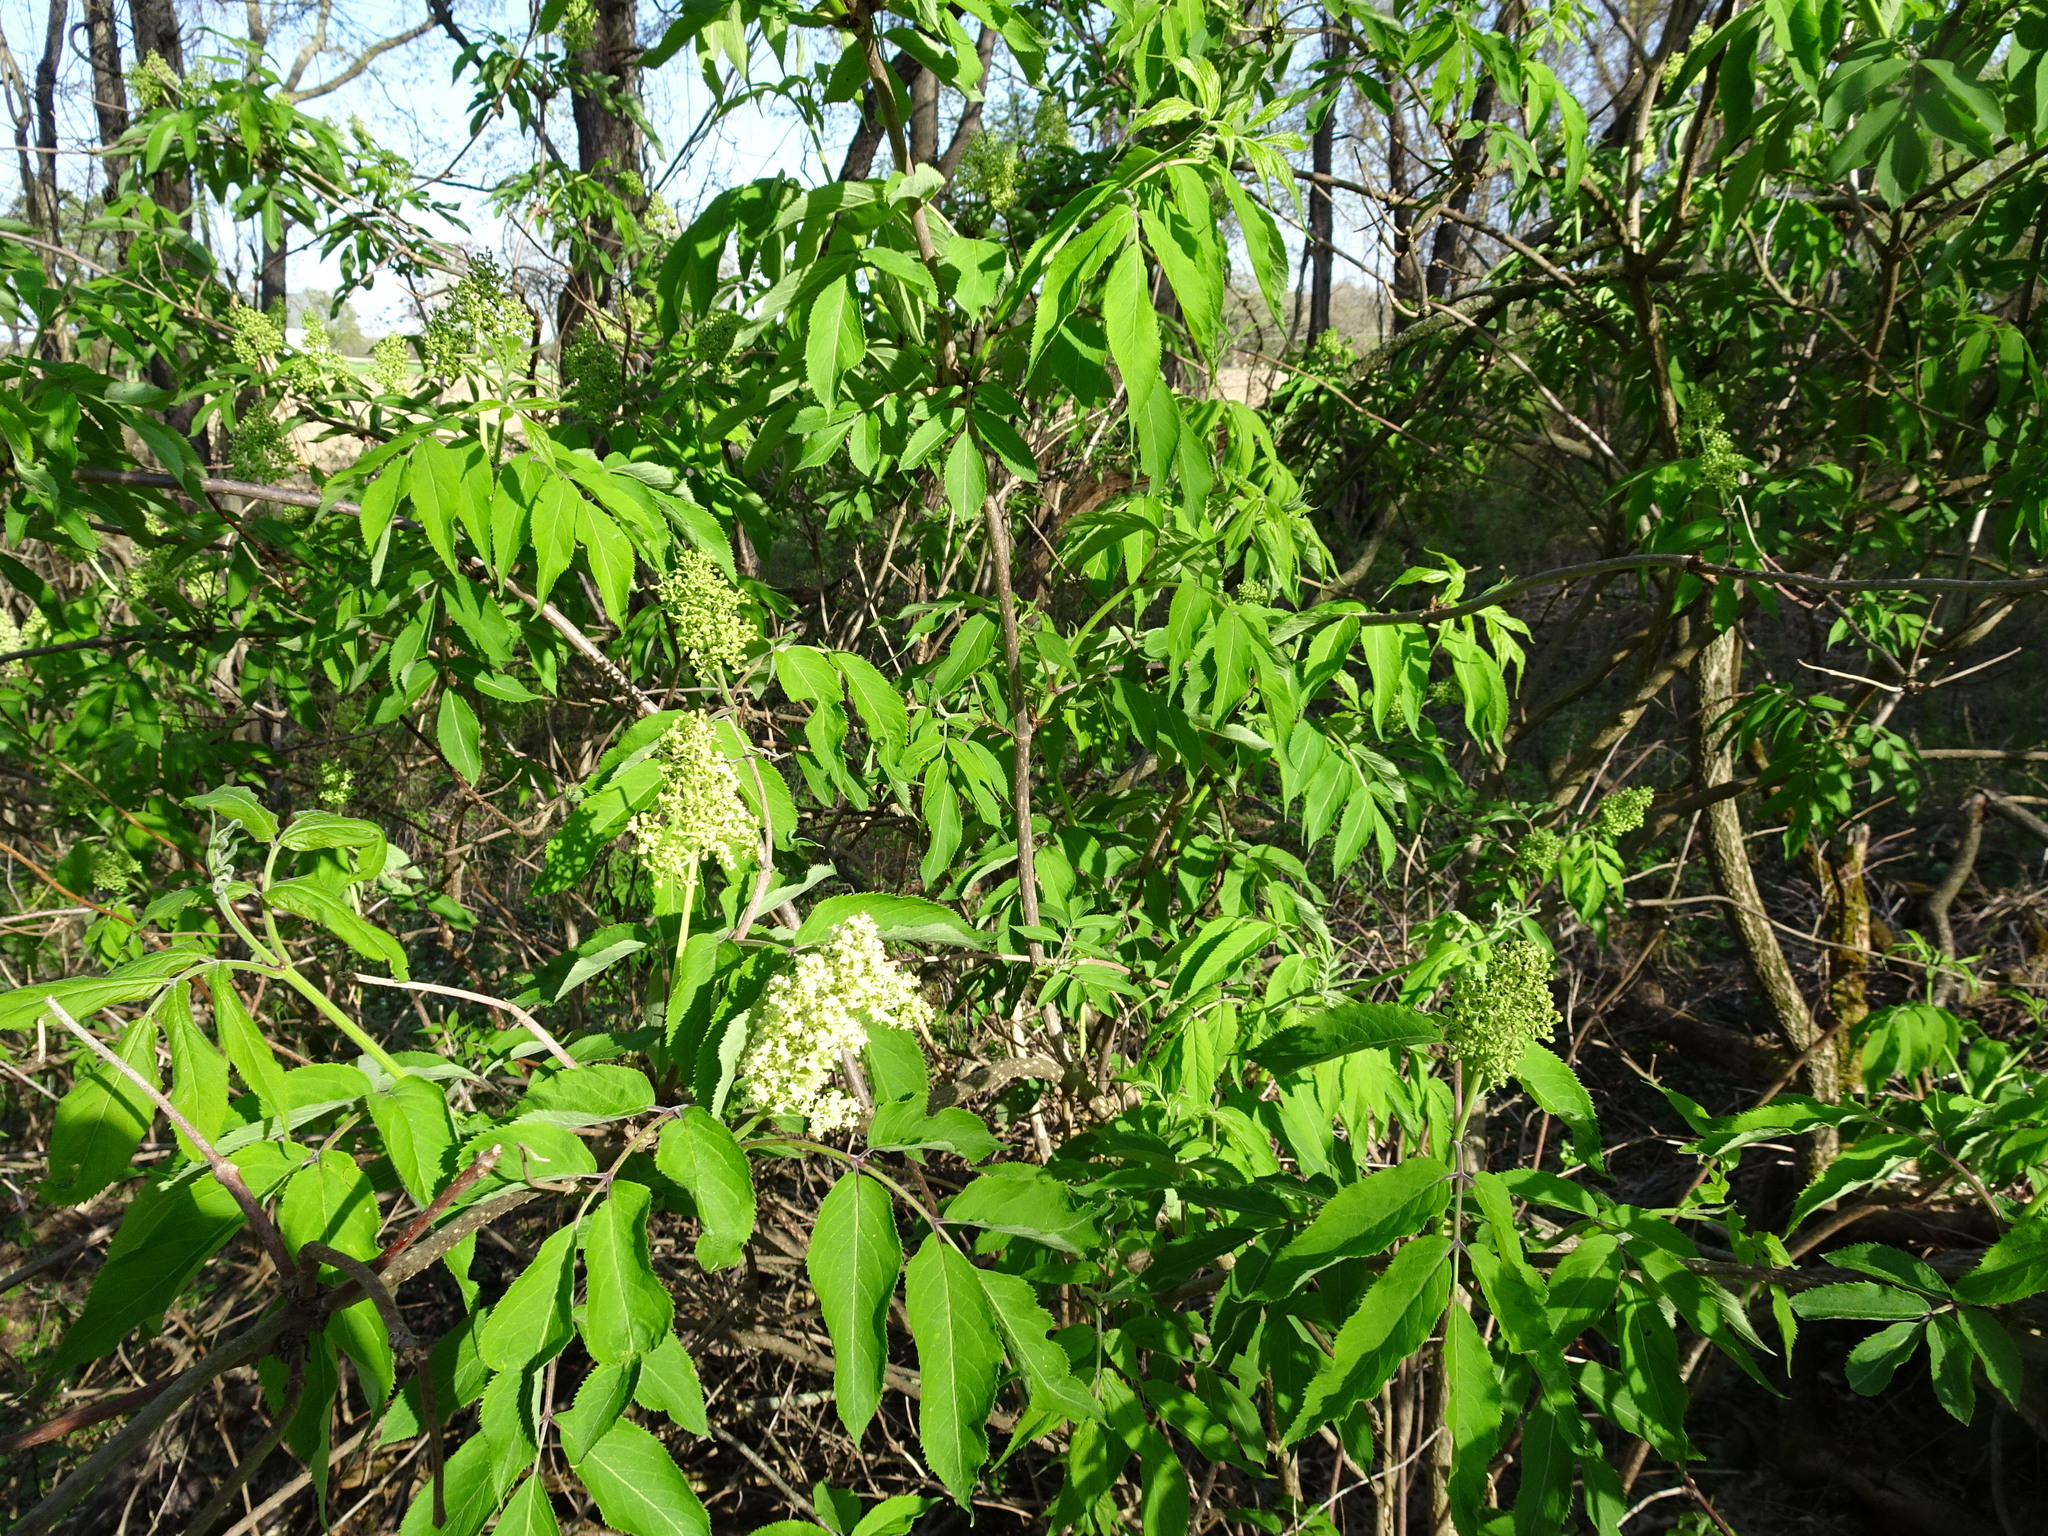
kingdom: Plantae
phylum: Tracheophyta
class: Magnoliopsida
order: Dipsacales
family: Viburnaceae
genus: Sambucus
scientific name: Sambucus racemosa
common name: Red-berried elder
